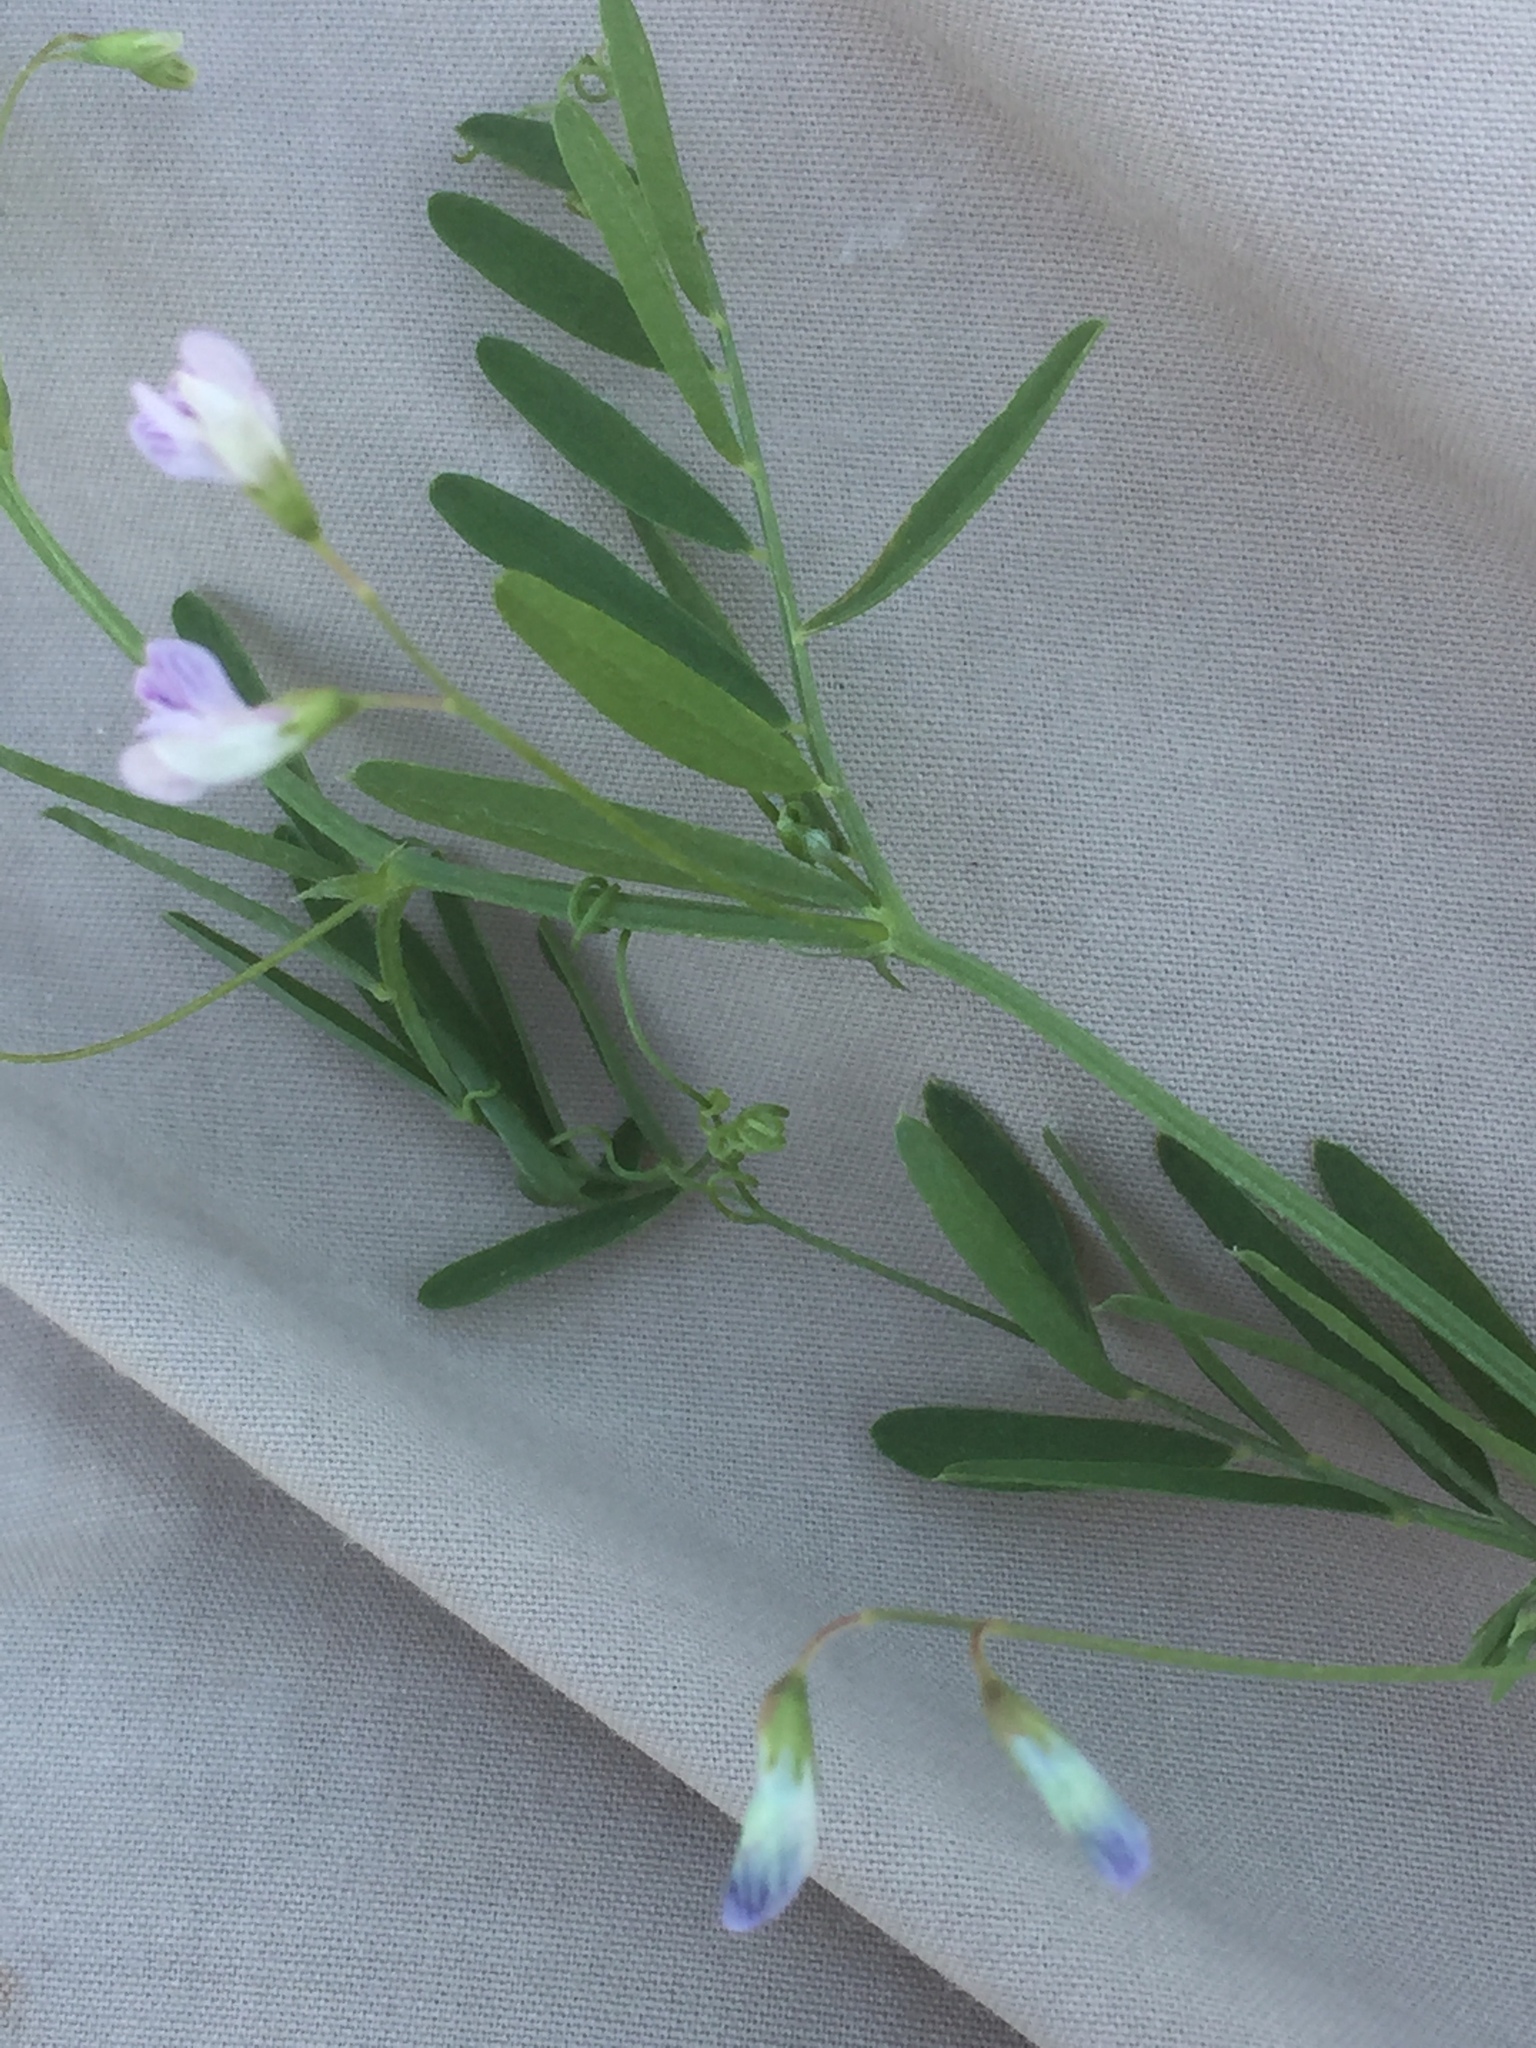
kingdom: Plantae
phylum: Tracheophyta
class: Magnoliopsida
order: Fabales
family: Fabaceae
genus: Vicia
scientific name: Vicia tetrasperma
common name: Smooth tare
